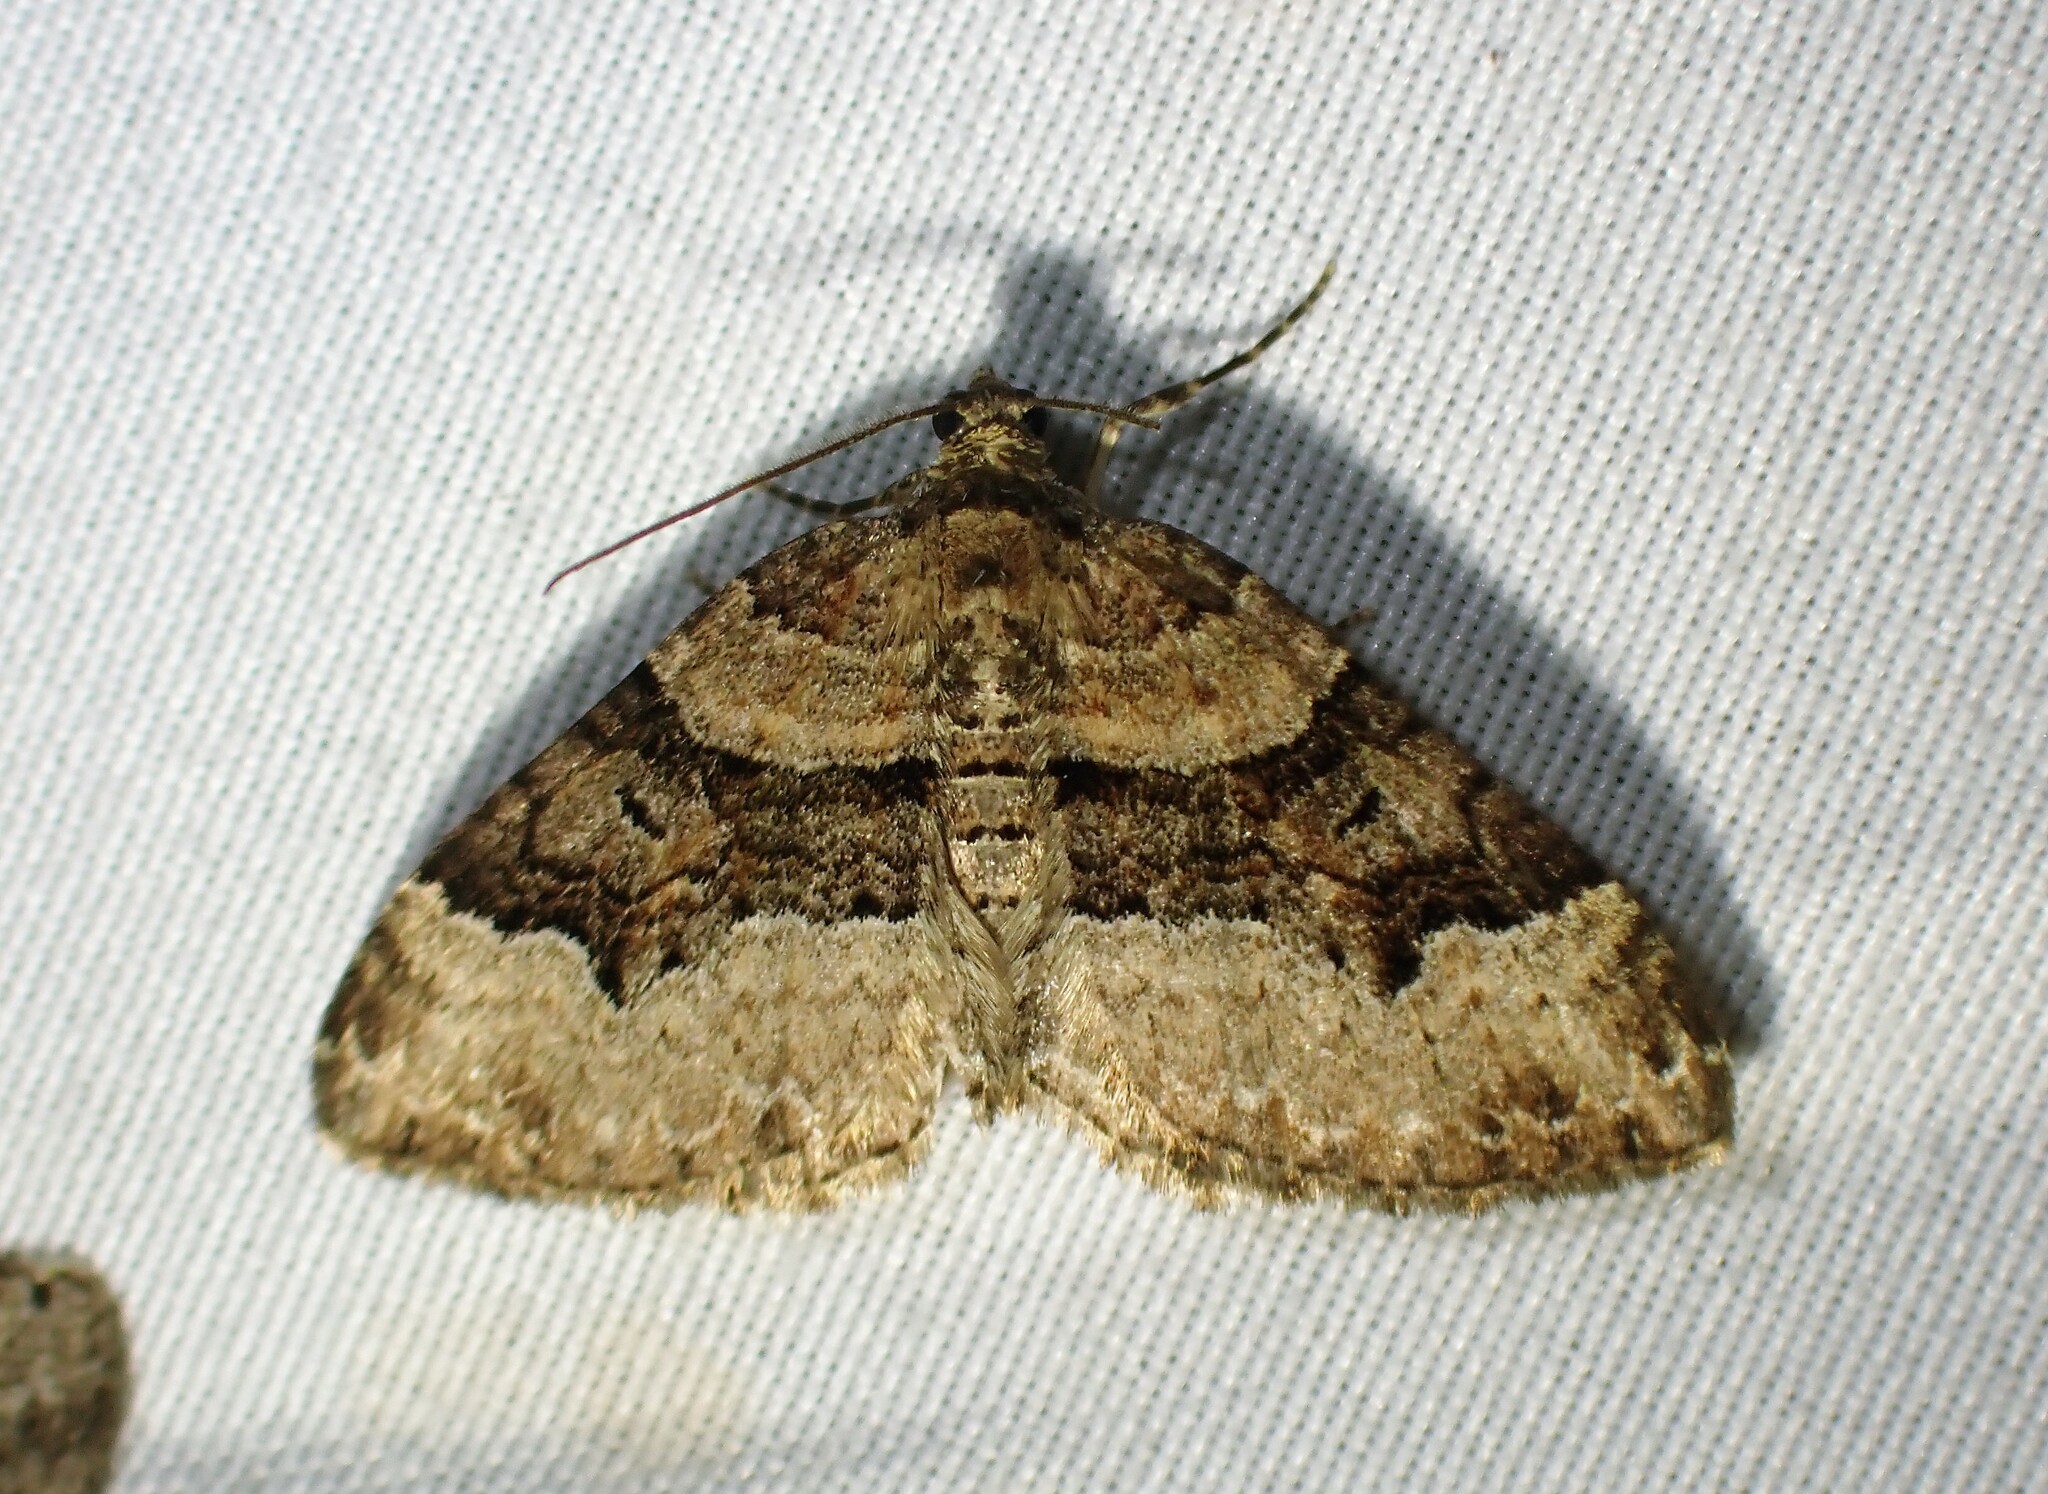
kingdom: Animalia
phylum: Arthropoda
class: Insecta
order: Lepidoptera
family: Geometridae
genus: Xanthorhoe
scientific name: Xanthorhoe lacustrata
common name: Toothed brown carpet
